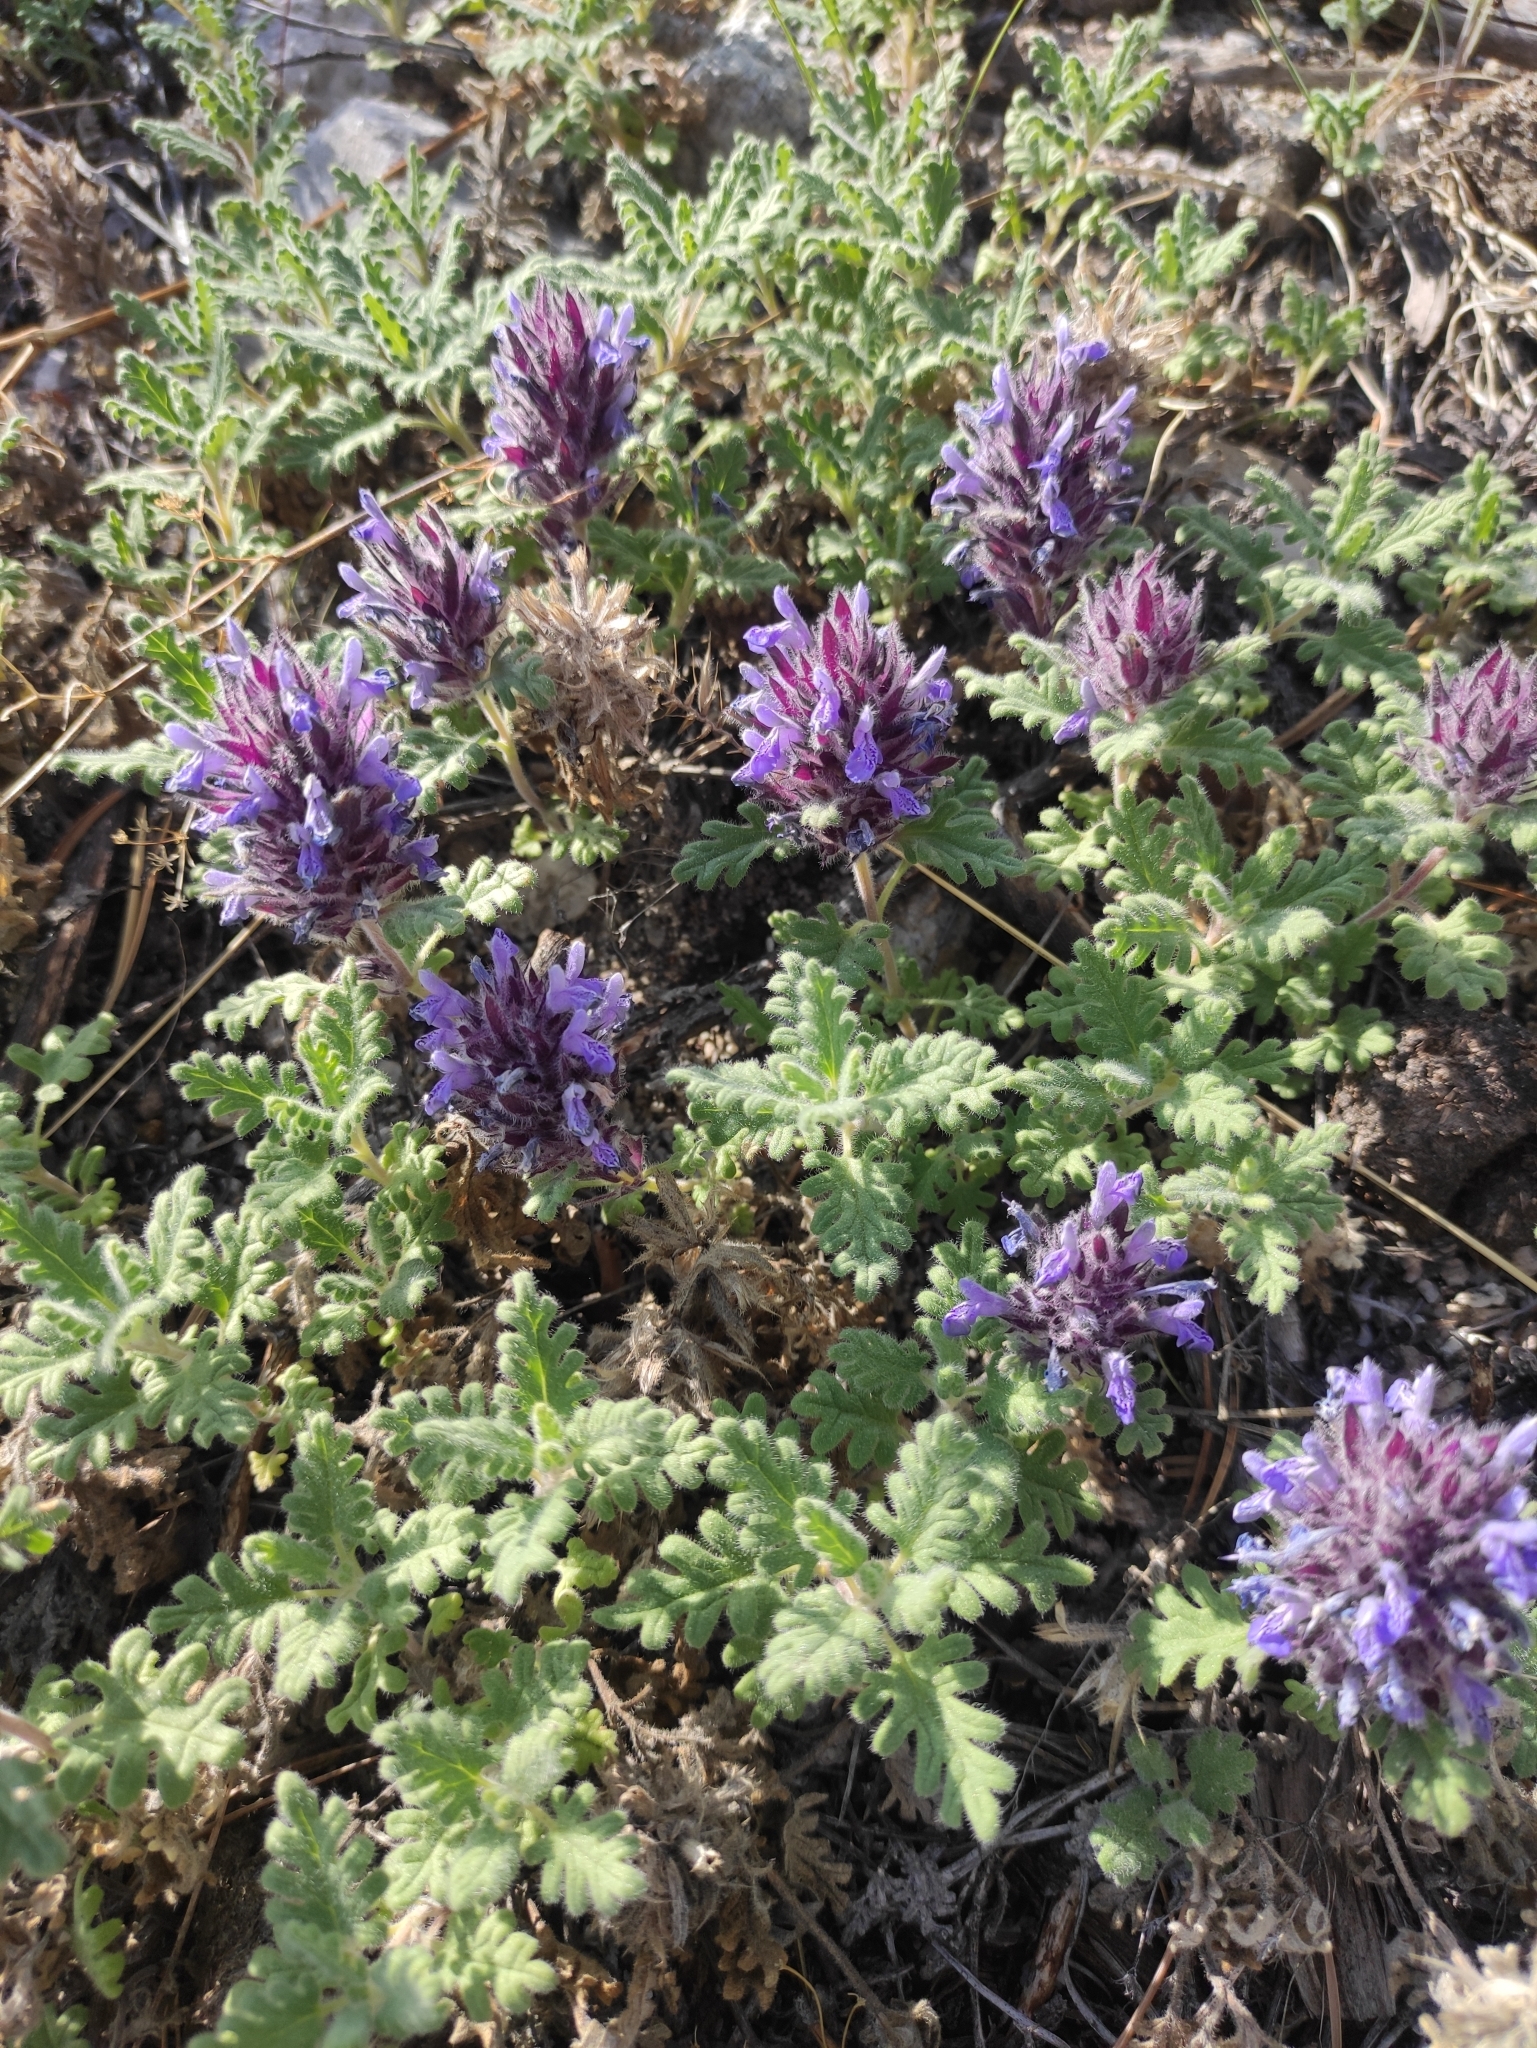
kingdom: Plantae
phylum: Tracheophyta
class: Magnoliopsida
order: Lamiales
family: Lamiaceae
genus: Dracocephalum
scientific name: Dracocephalum pinnatum
